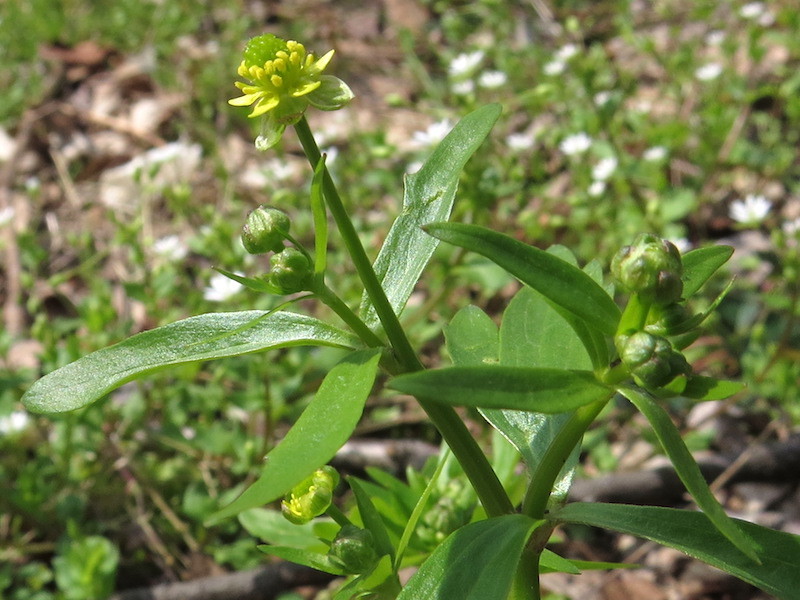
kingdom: Plantae
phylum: Tracheophyta
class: Magnoliopsida
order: Ranunculales
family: Ranunculaceae
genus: Ranunculus
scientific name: Ranunculus abortivus
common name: Early wood buttercup
